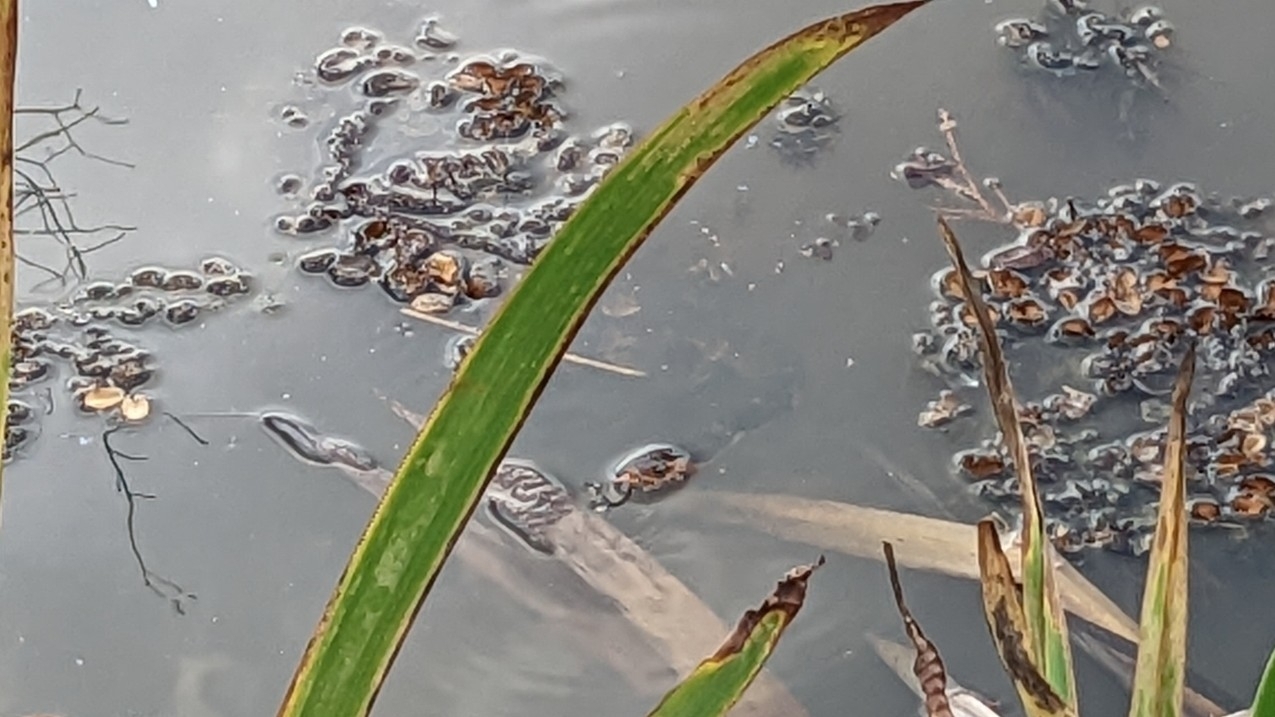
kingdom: Animalia
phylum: Chordata
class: Squamata
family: Colubridae
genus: Nerodia
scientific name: Nerodia fasciata
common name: Southern water snake
